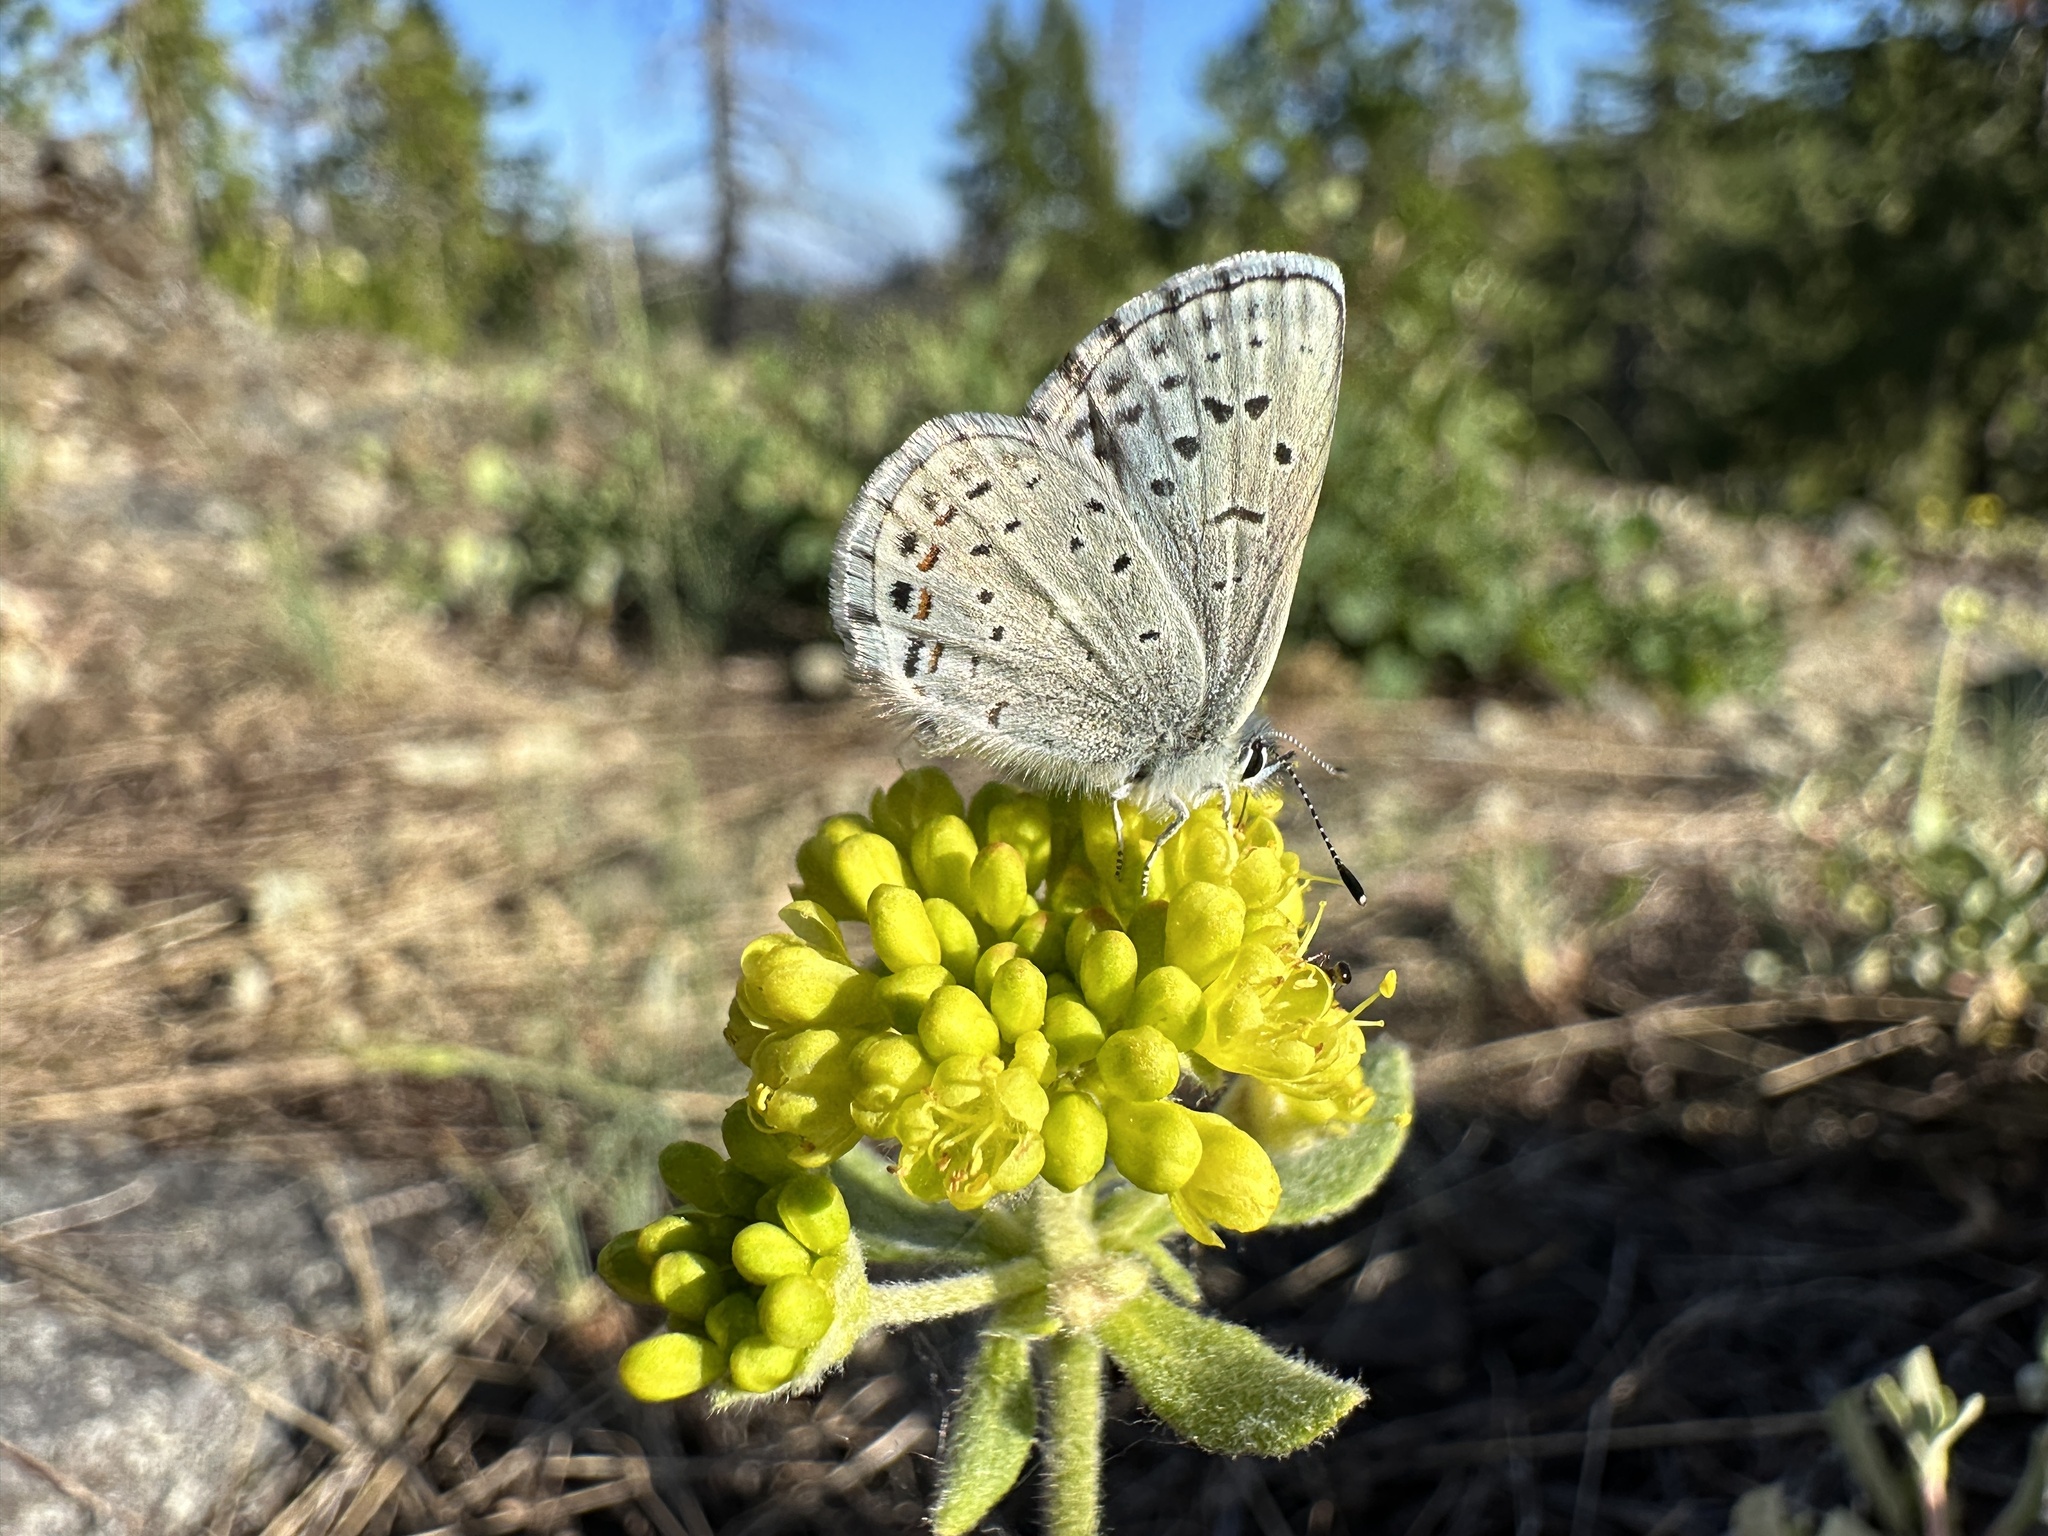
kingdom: Animalia
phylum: Arthropoda
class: Insecta
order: Lepidoptera
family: Lycaenidae
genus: Philotes
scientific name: Philotes intermedia
